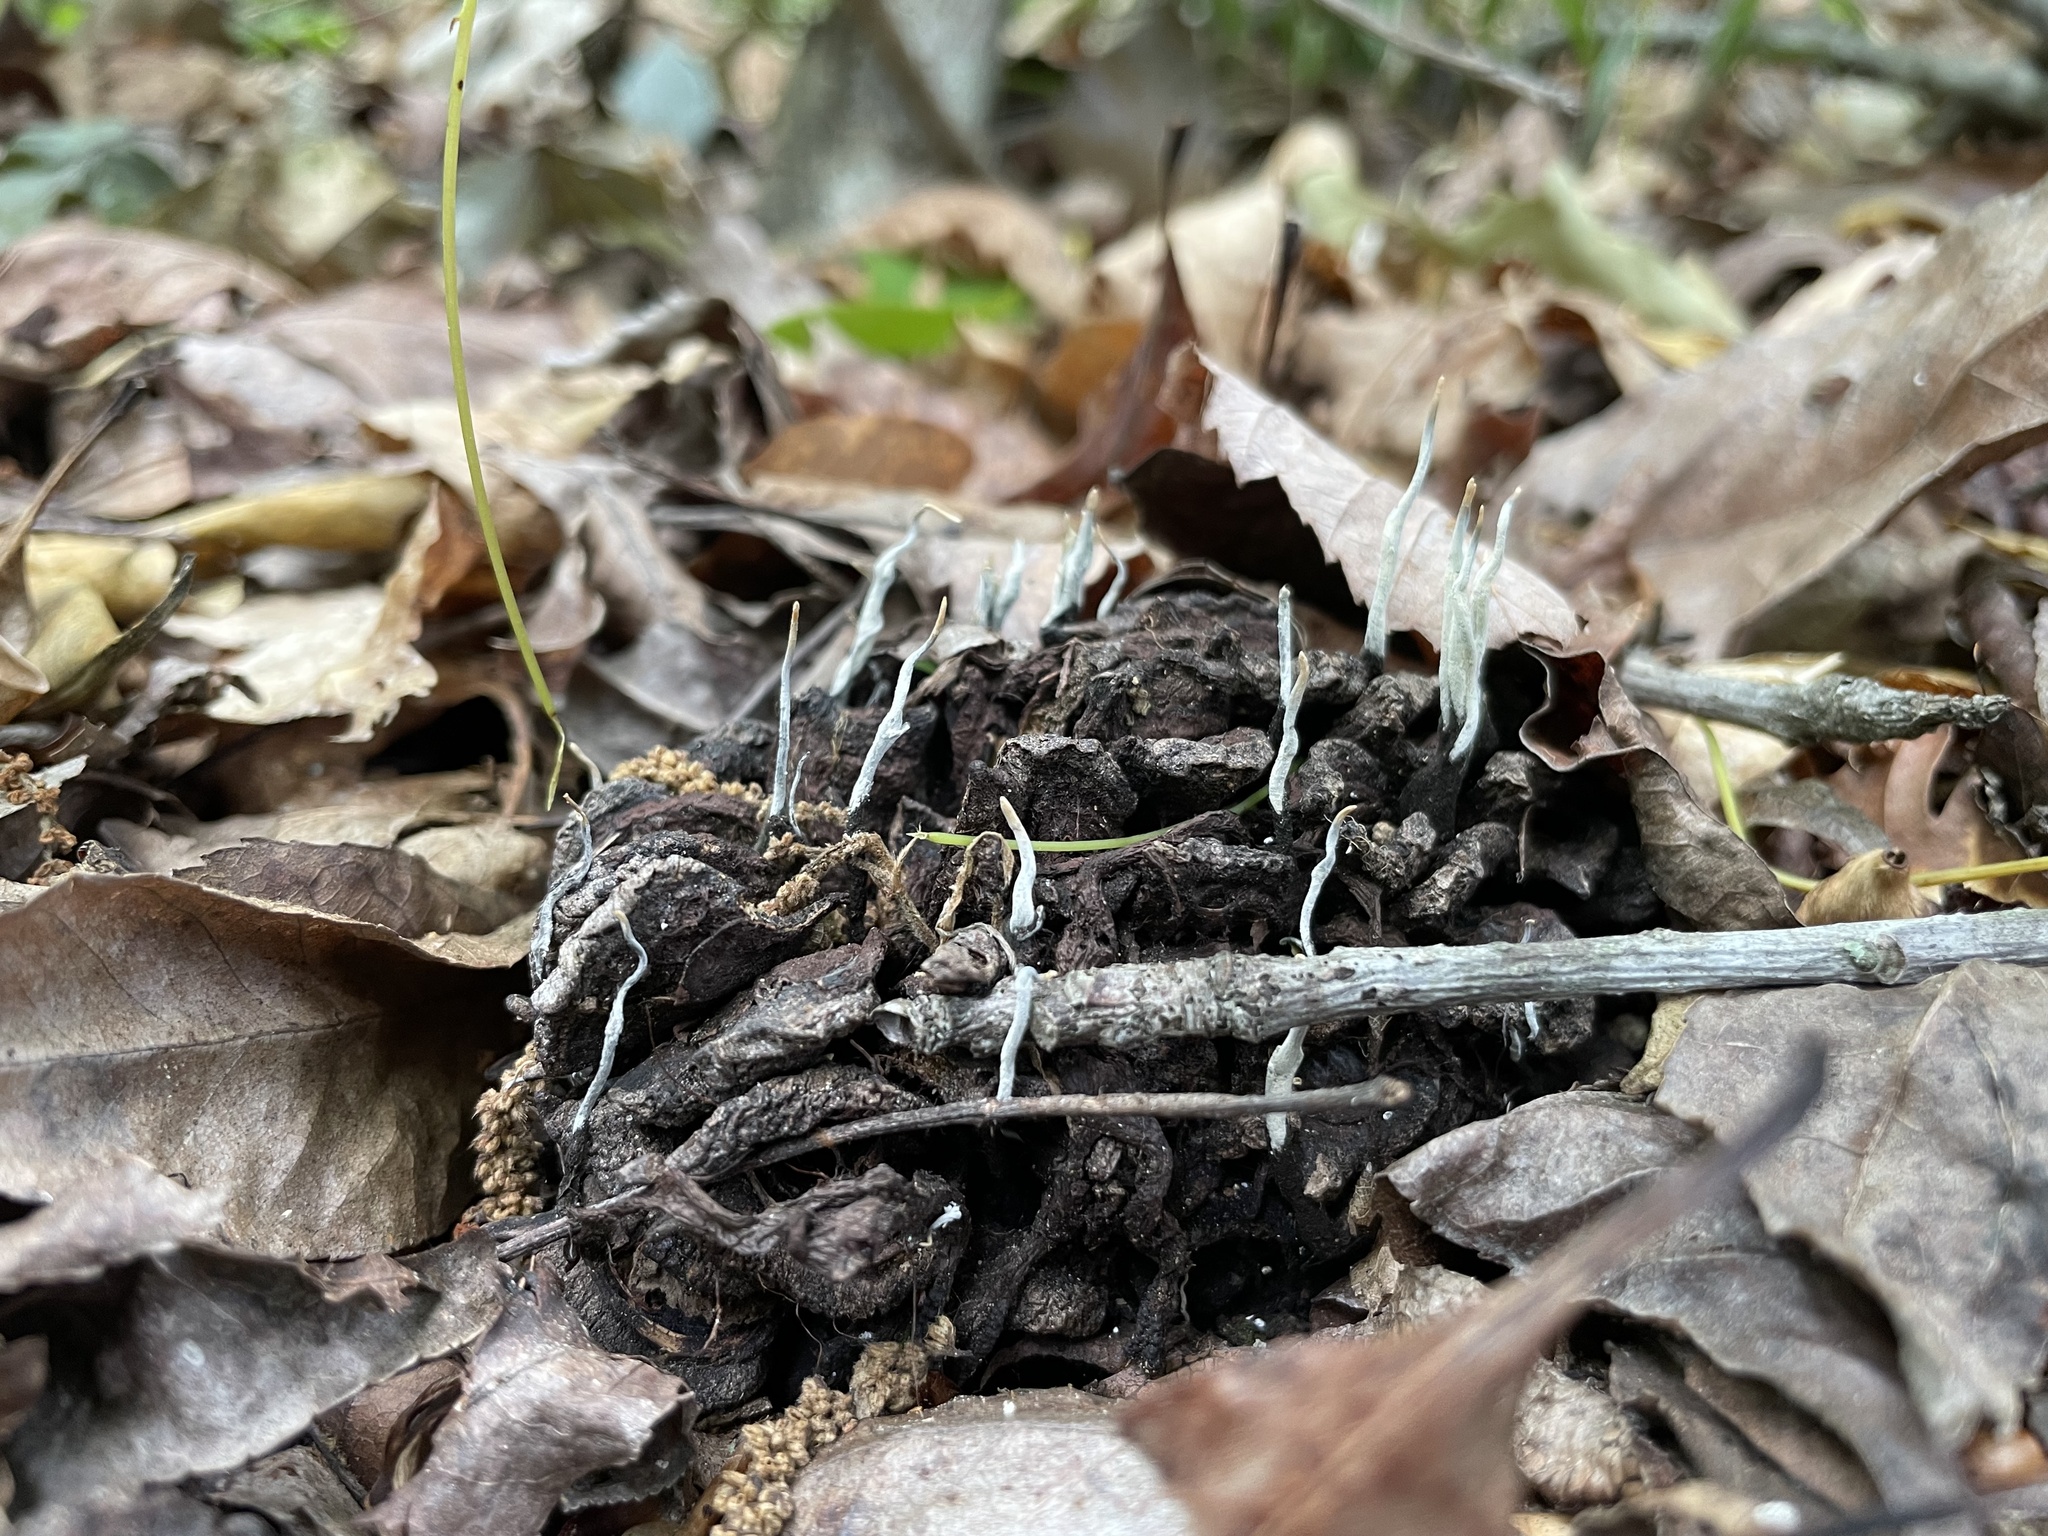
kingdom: Fungi
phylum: Ascomycota
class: Sordariomycetes
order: Xylariales
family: Xylariaceae
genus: Xylaria
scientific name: Xylaria magnoliae
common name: Magnolia-cone xylaria
